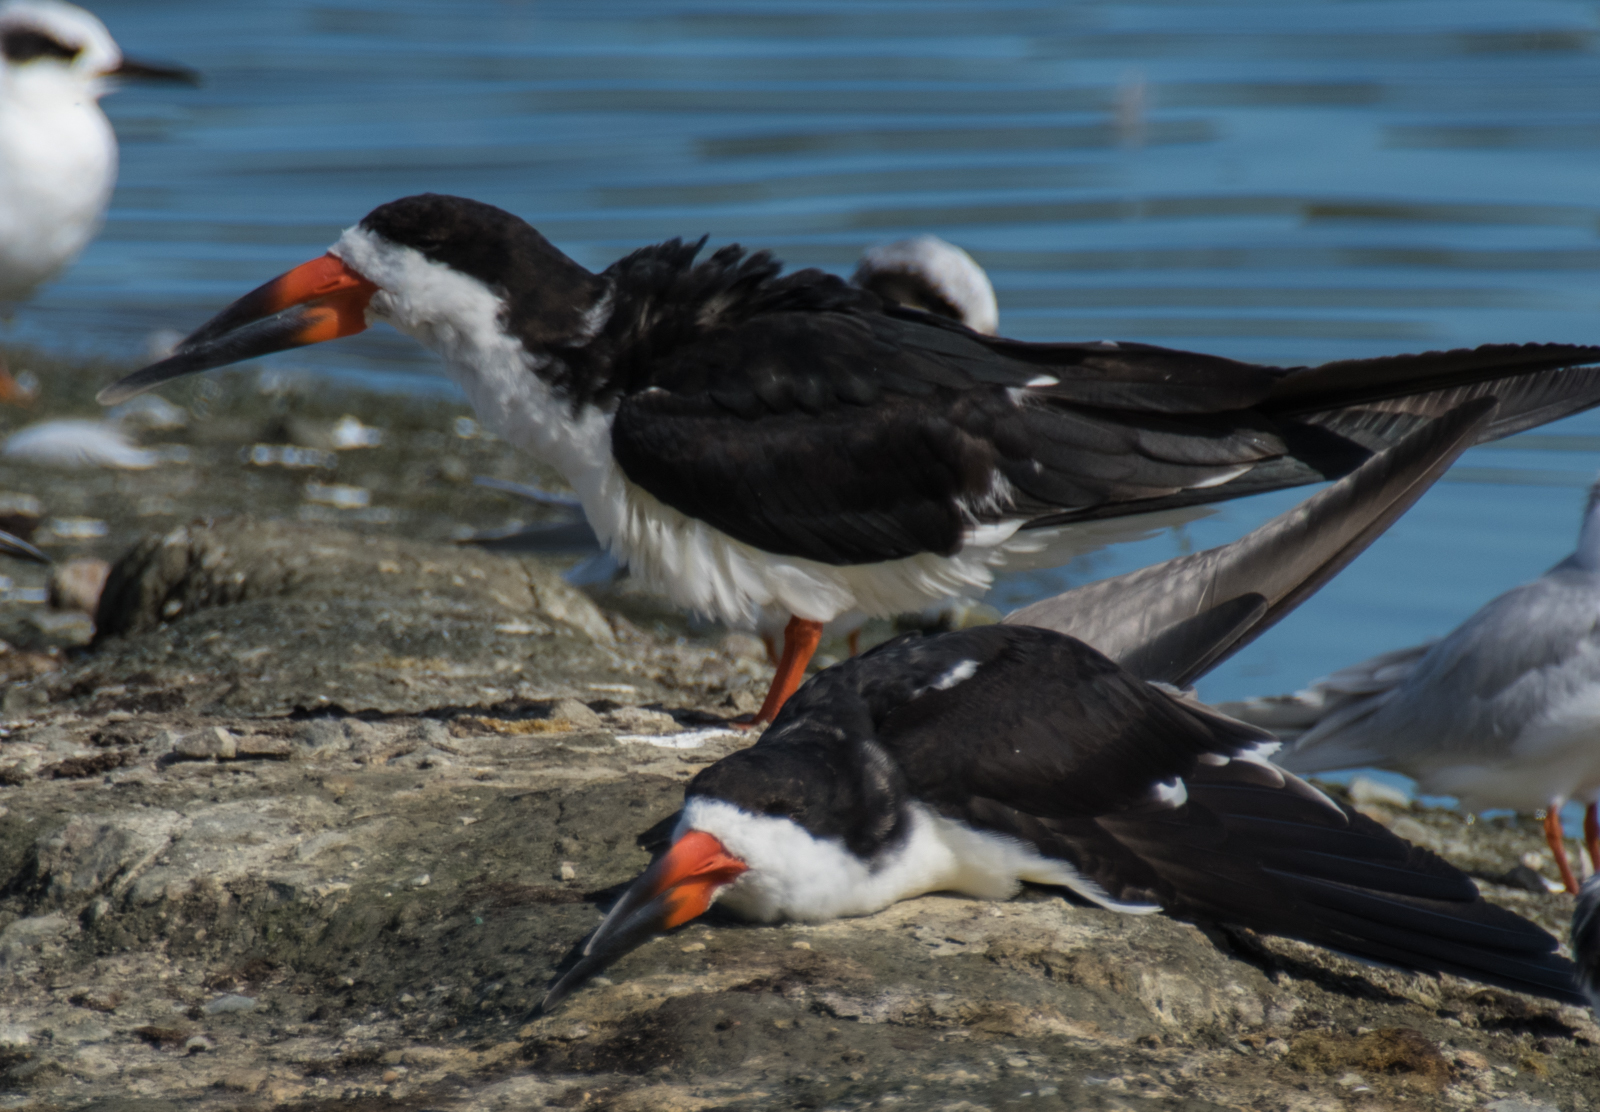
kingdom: Animalia
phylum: Chordata
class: Aves
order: Charadriiformes
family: Laridae
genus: Rynchops
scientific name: Rynchops niger
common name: Black skimmer
